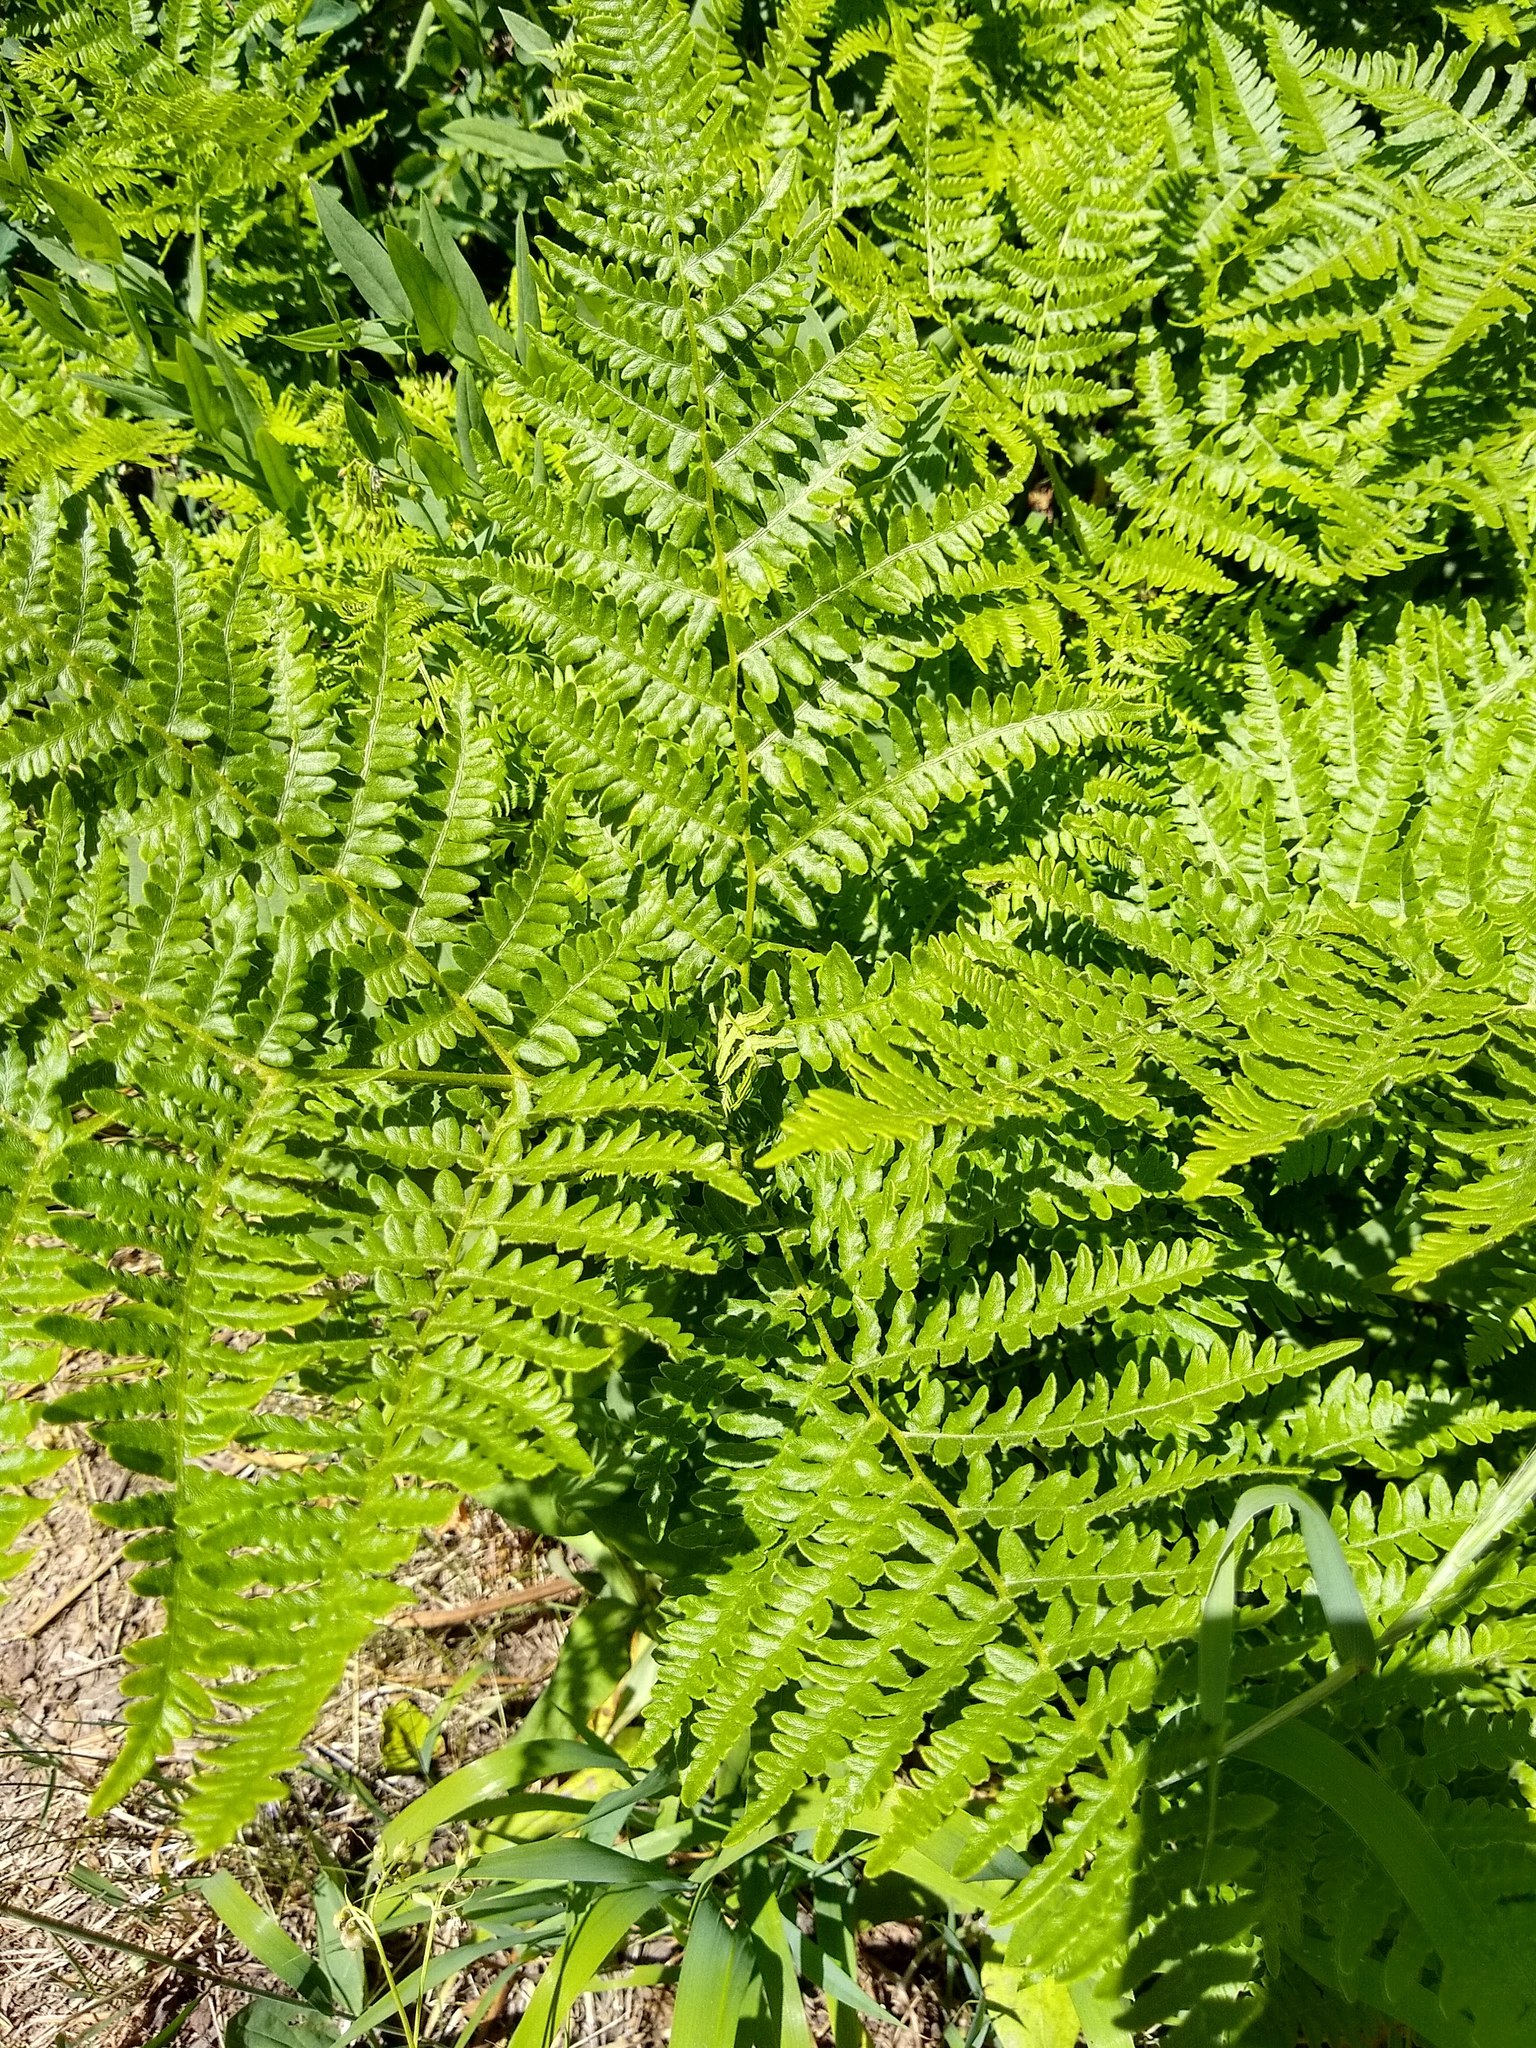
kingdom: Plantae
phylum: Tracheophyta
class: Polypodiopsida
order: Polypodiales
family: Dennstaedtiaceae
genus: Pteridium
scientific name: Pteridium aquilinum
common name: Bracken
